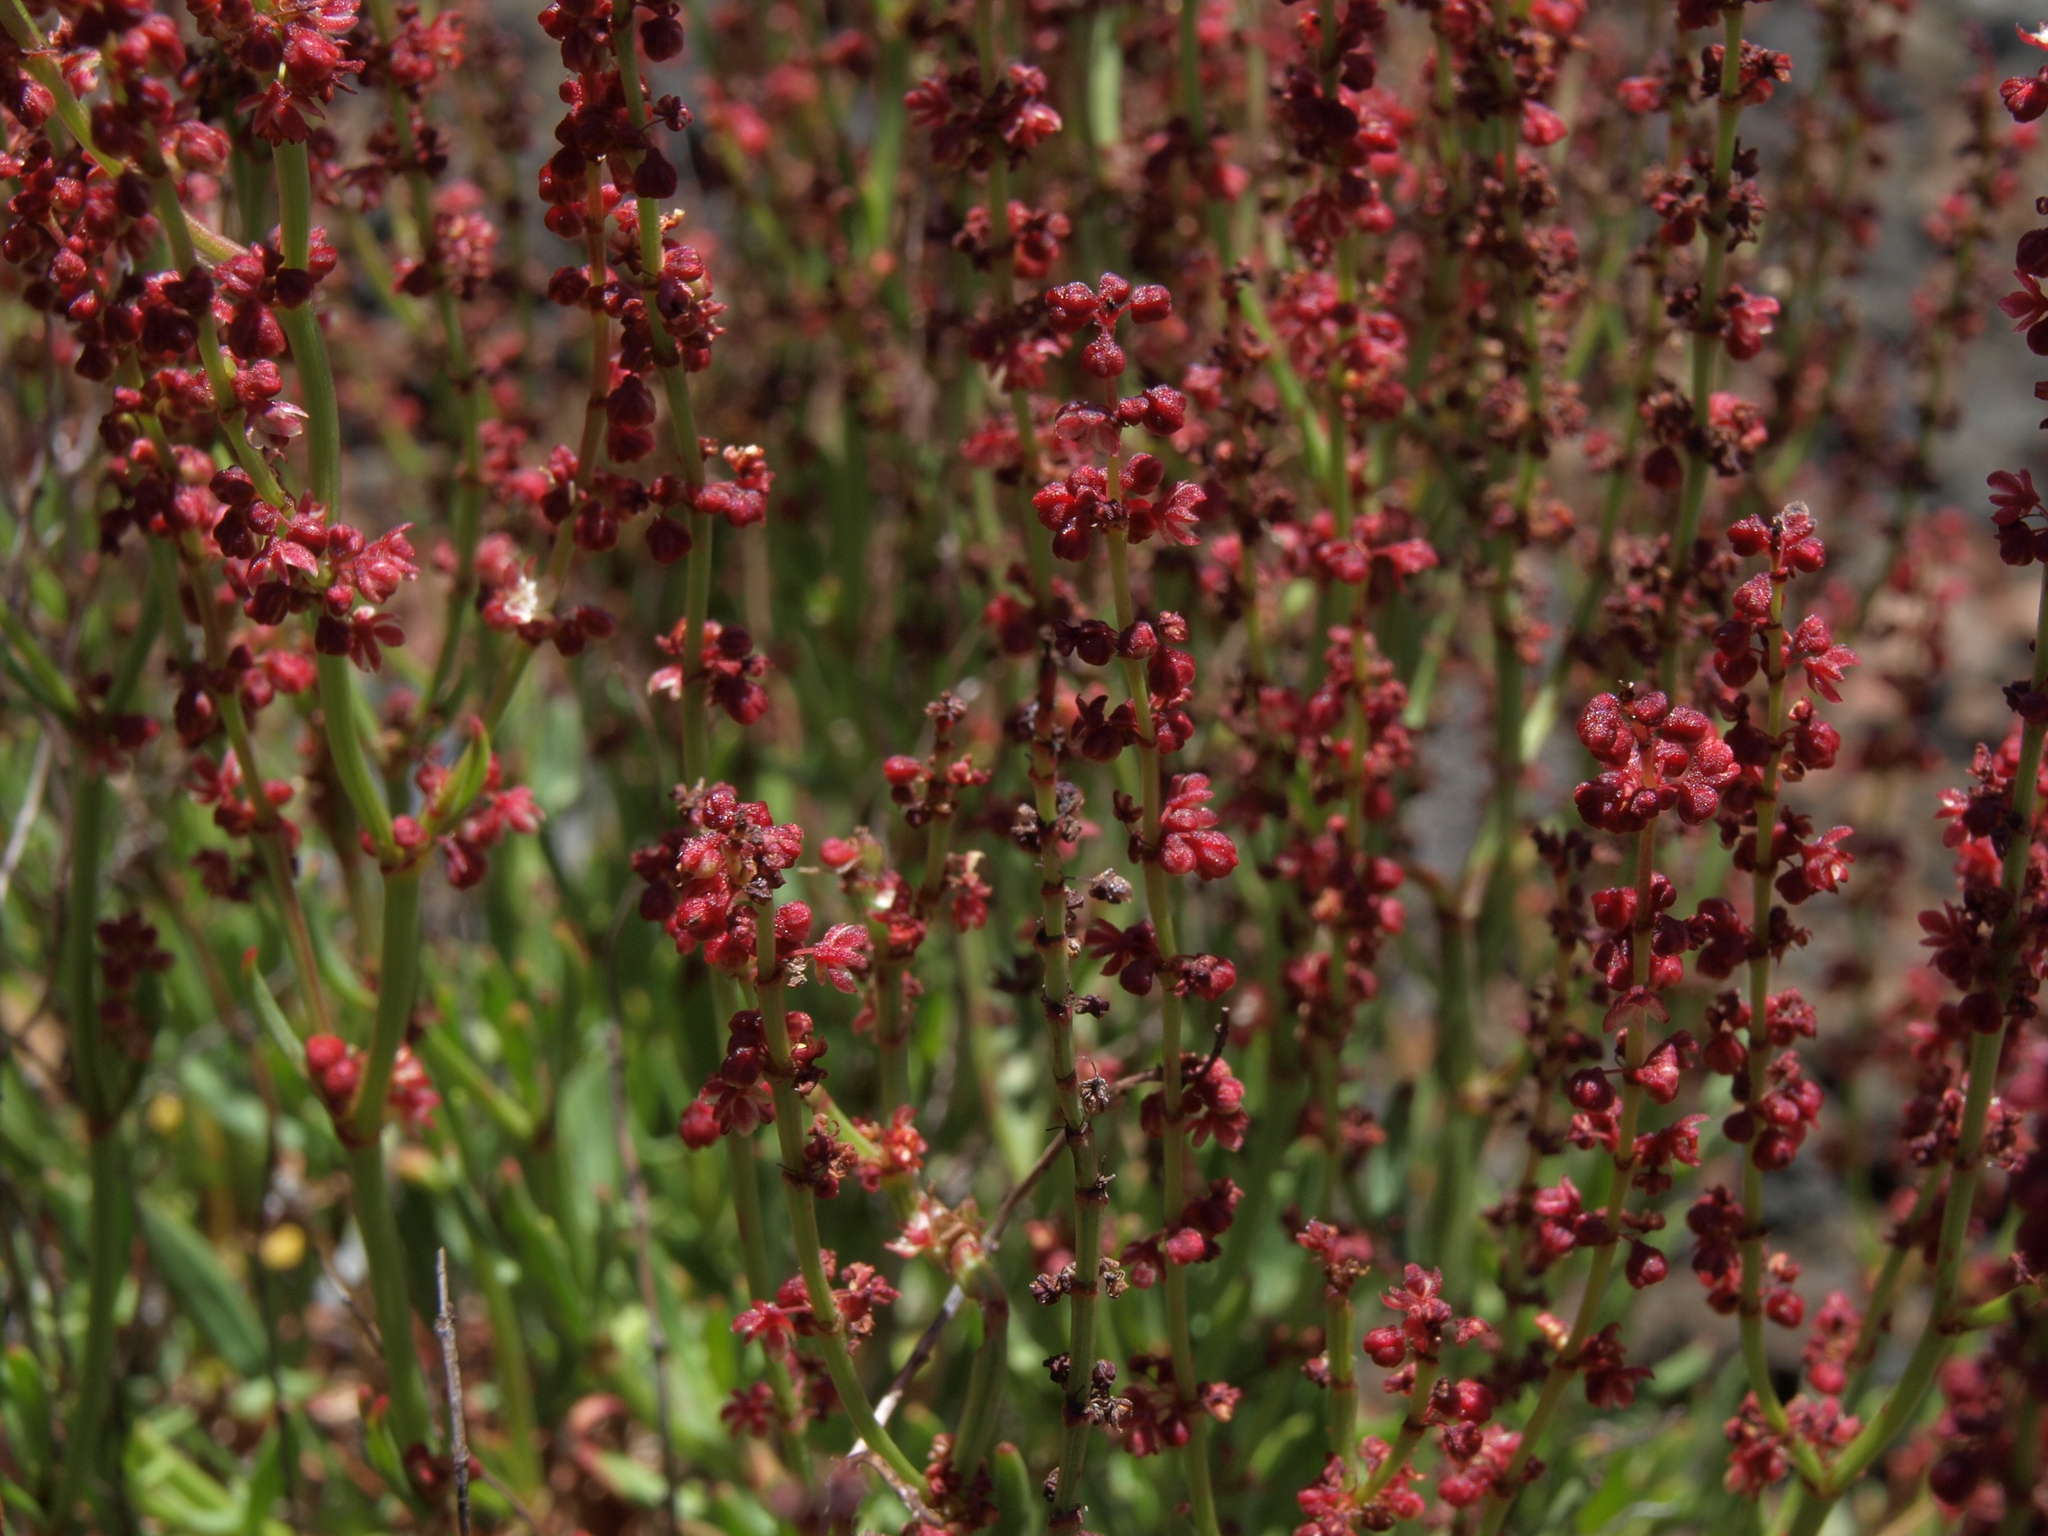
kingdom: Plantae
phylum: Tracheophyta
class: Magnoliopsida
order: Caryophyllales
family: Polygonaceae
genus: Rumex
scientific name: Rumex acetosella
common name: Common sheep sorrel
